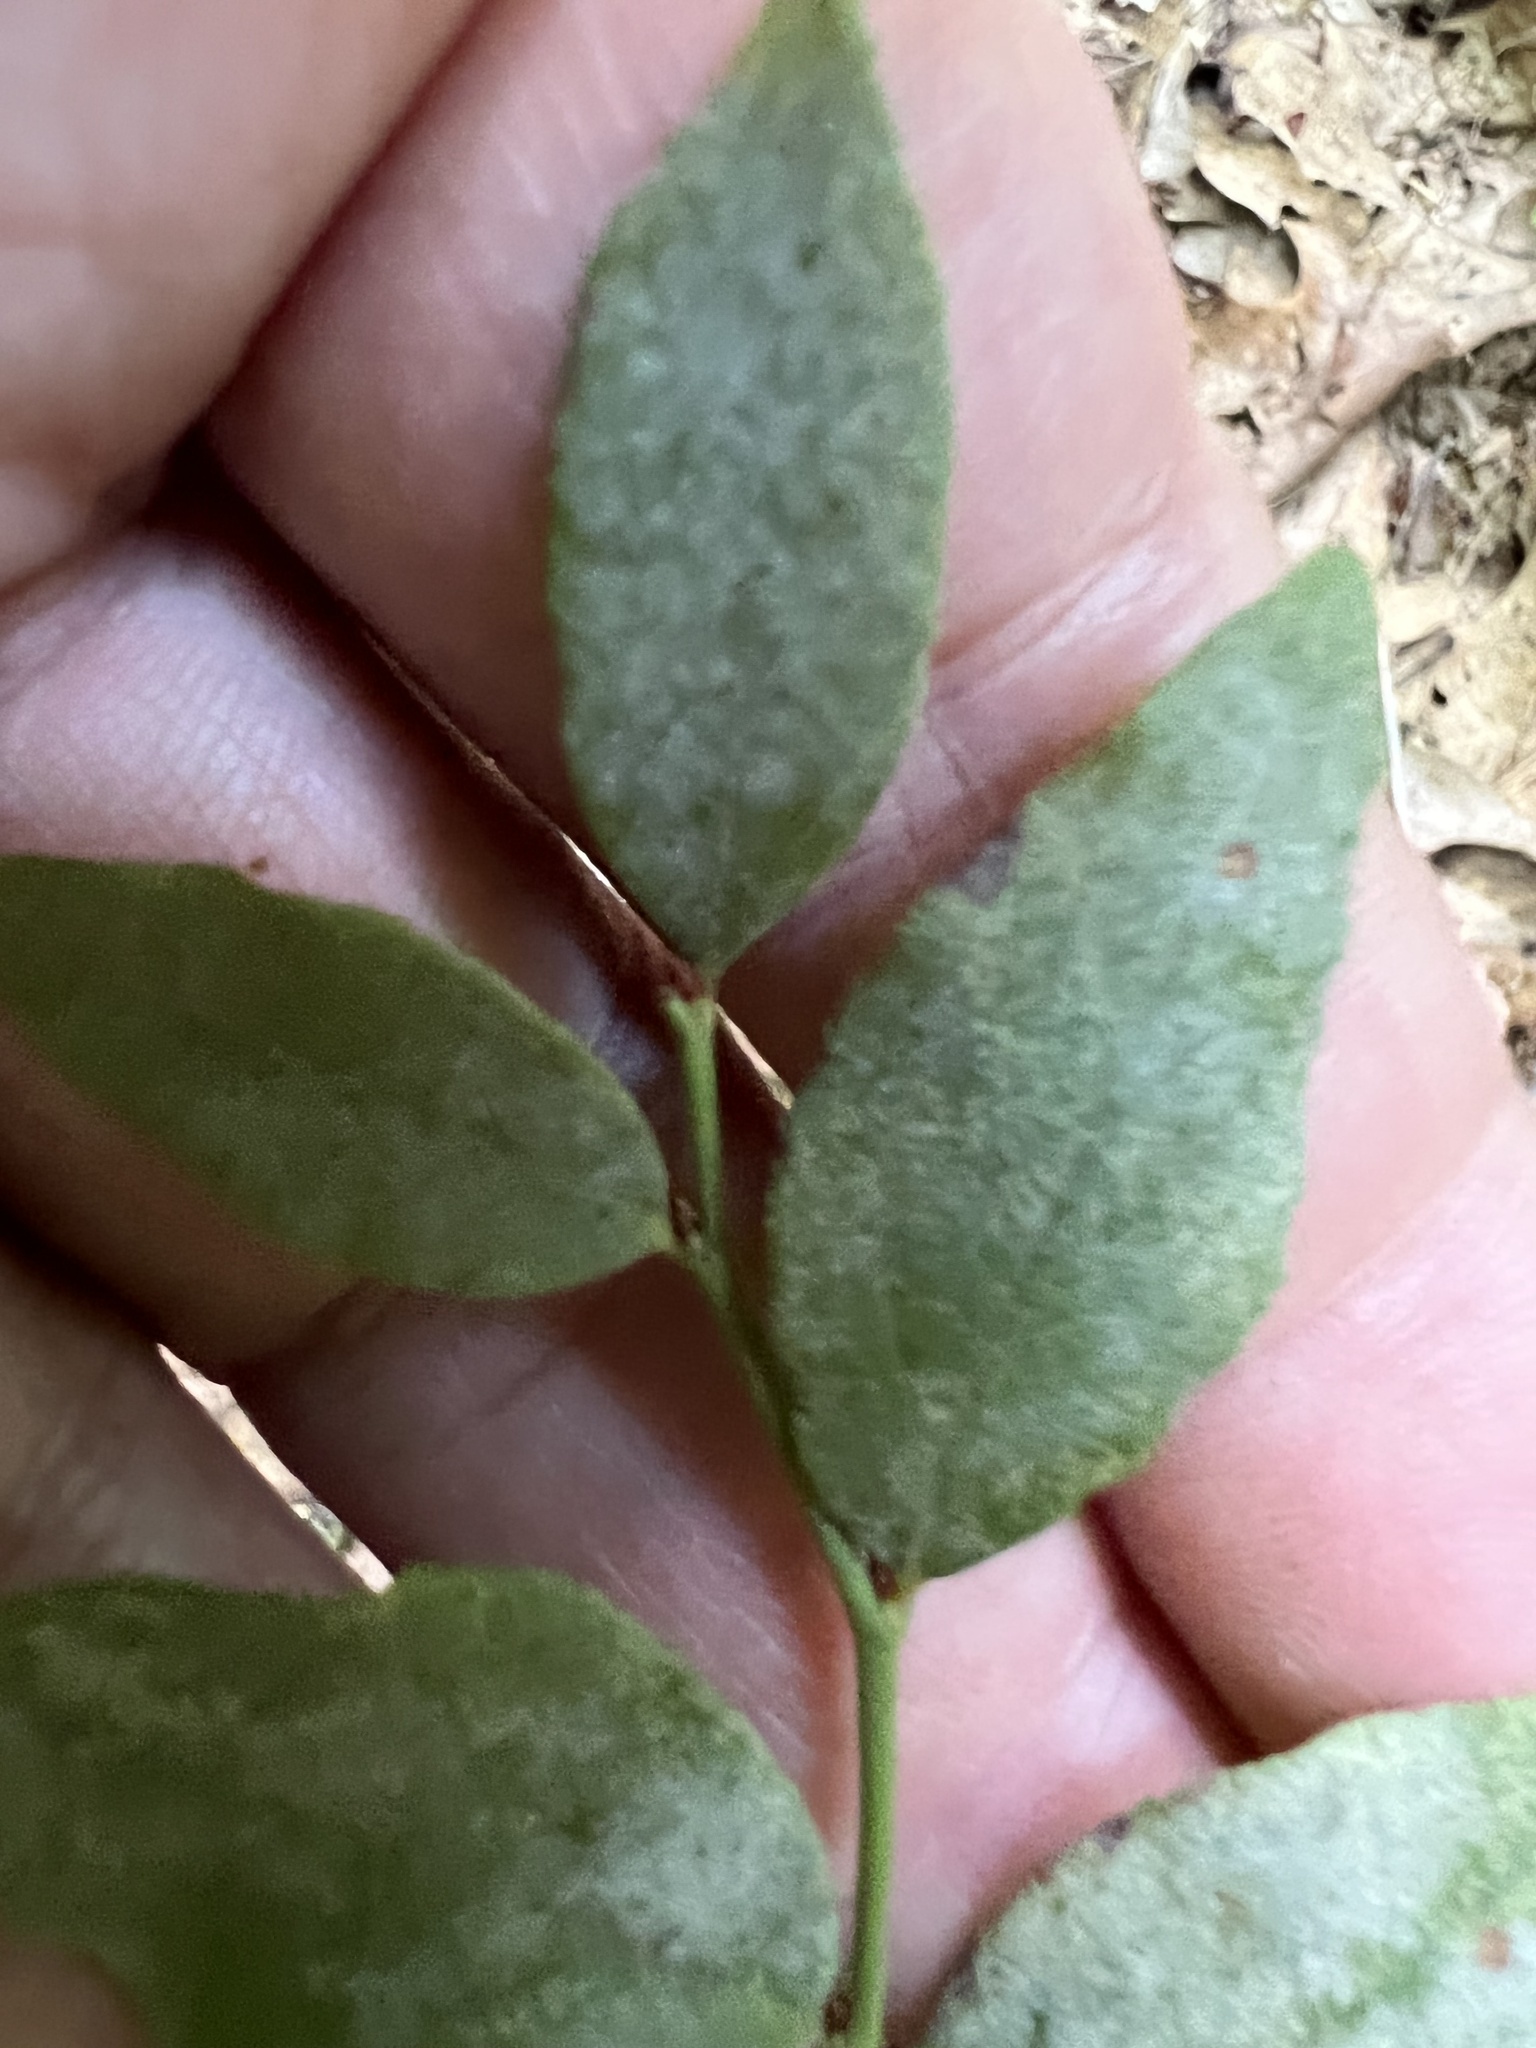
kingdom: Fungi
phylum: Ascomycota
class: Leotiomycetes
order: Helotiales
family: Erysiphaceae
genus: Erysiphe
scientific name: Erysiphe penicillata
